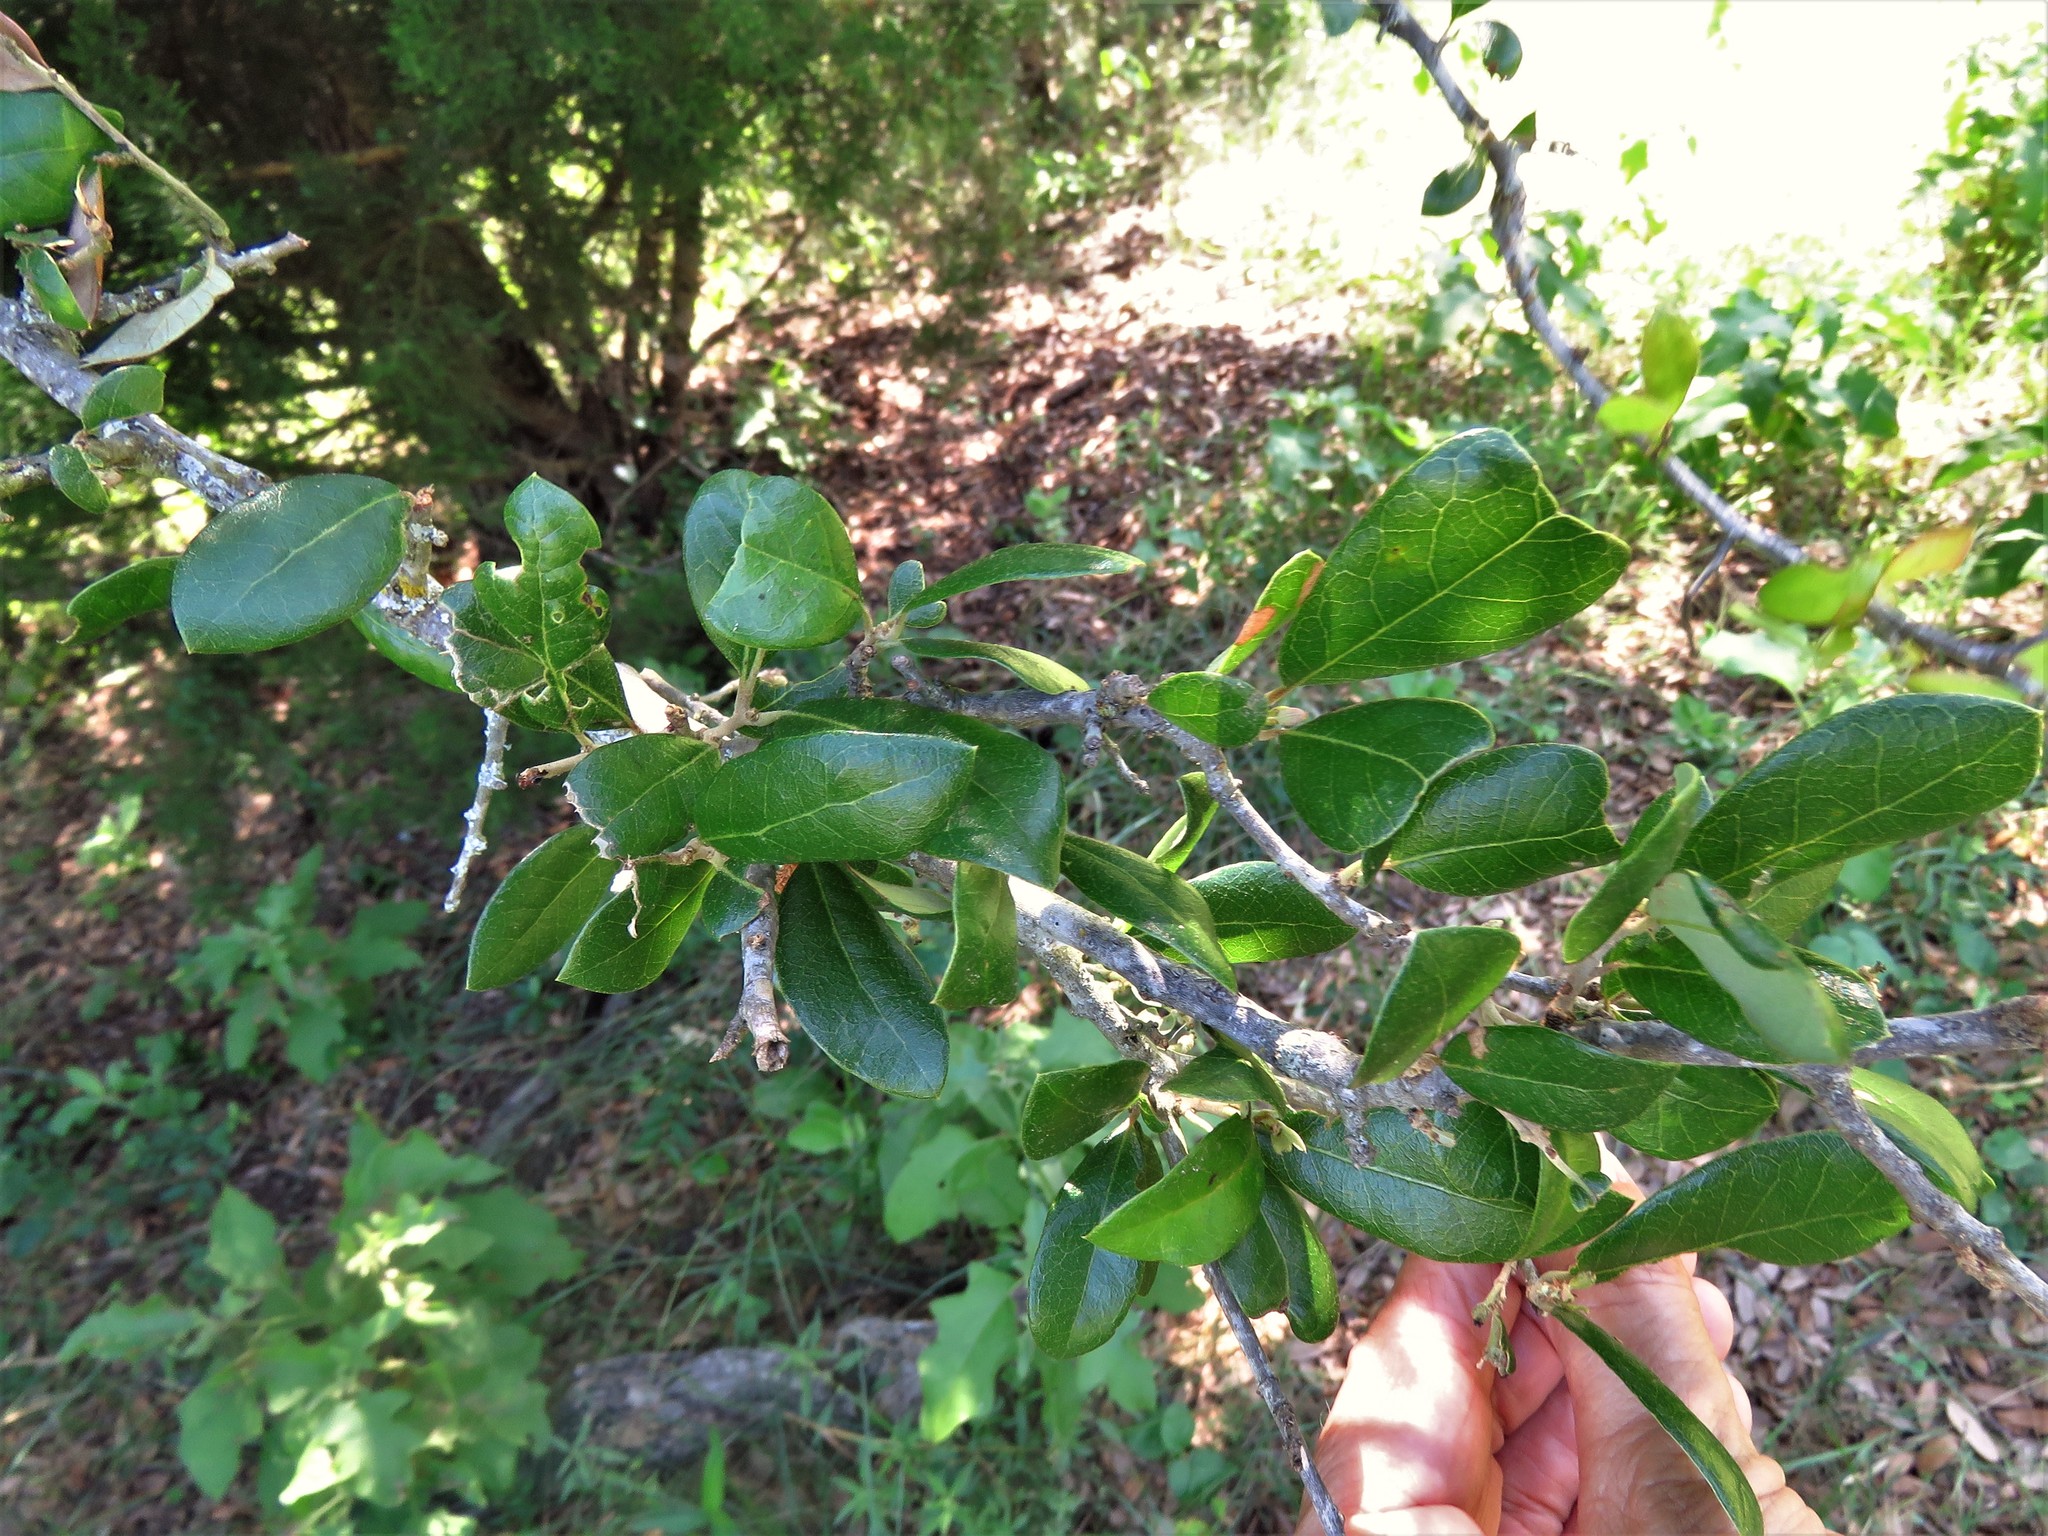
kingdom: Plantae
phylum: Tracheophyta
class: Magnoliopsida
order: Fagales
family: Fagaceae
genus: Quercus
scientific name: Quercus fusiformis
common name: Texas live oak
